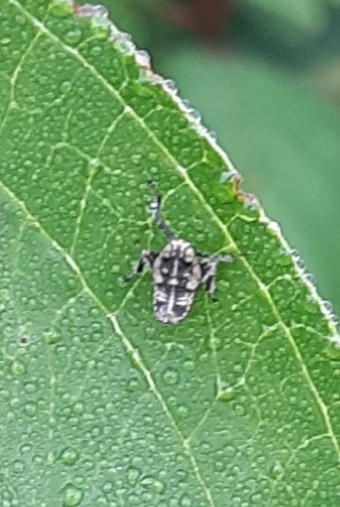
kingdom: Animalia
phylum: Arthropoda
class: Insecta
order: Hemiptera
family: Cicadellidae
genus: Jikradia
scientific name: Jikradia olitoria
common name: Coppery leafhopper
